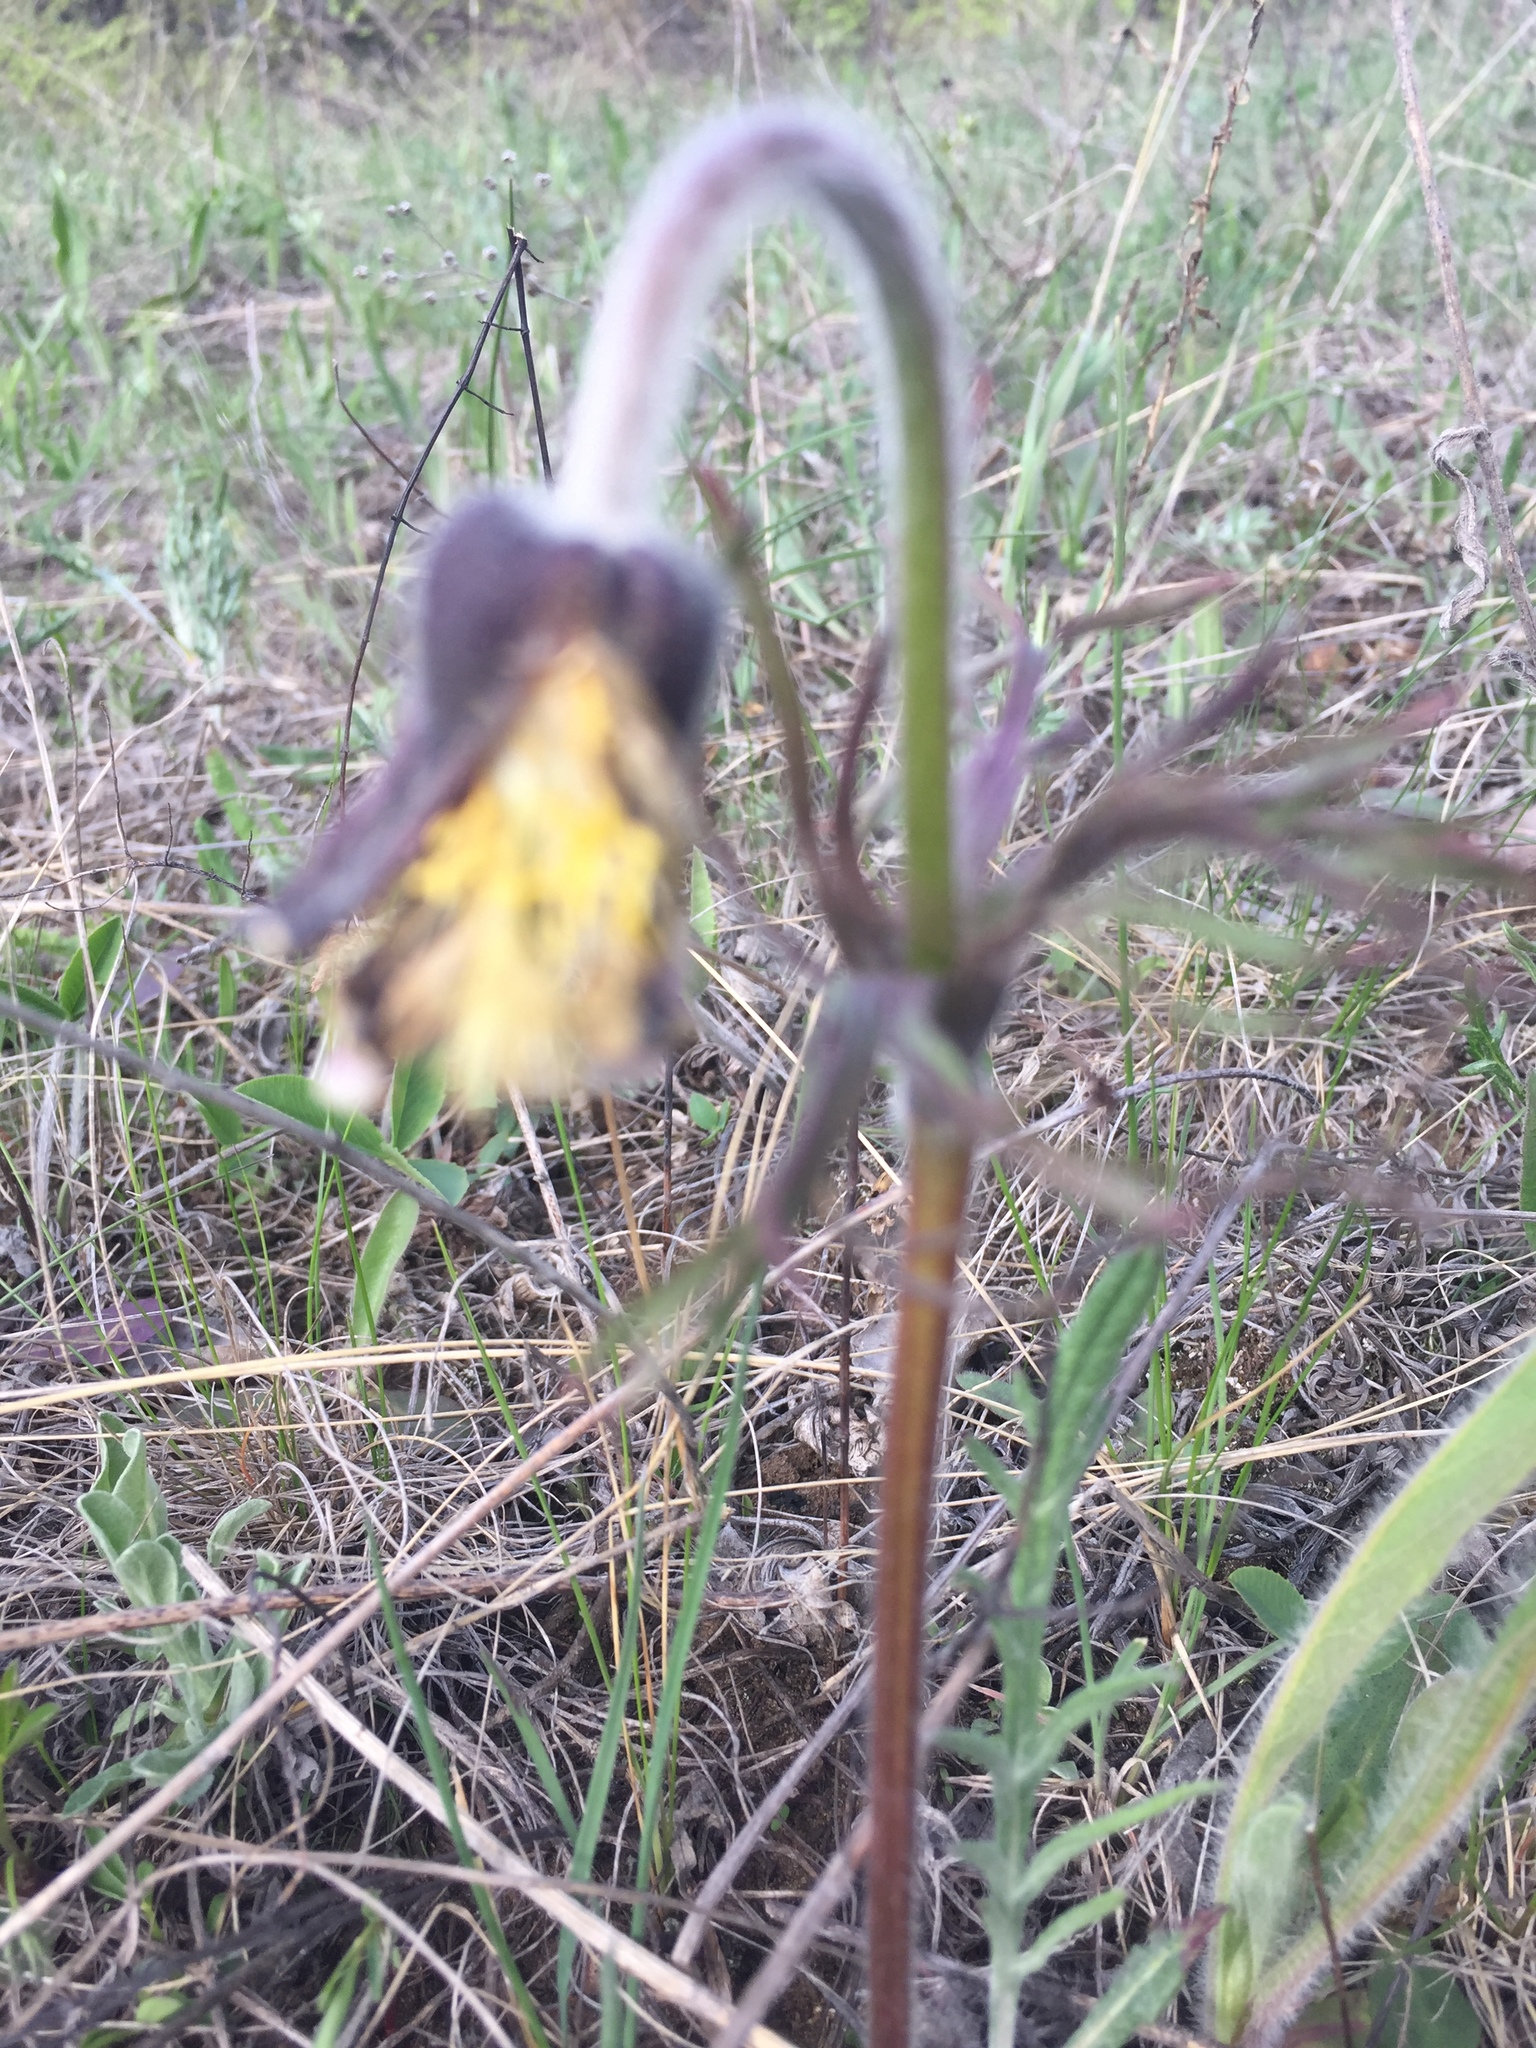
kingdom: Plantae
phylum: Tracheophyta
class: Magnoliopsida
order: Ranunculales
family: Ranunculaceae
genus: Pulsatilla
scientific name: Pulsatilla pratensis
